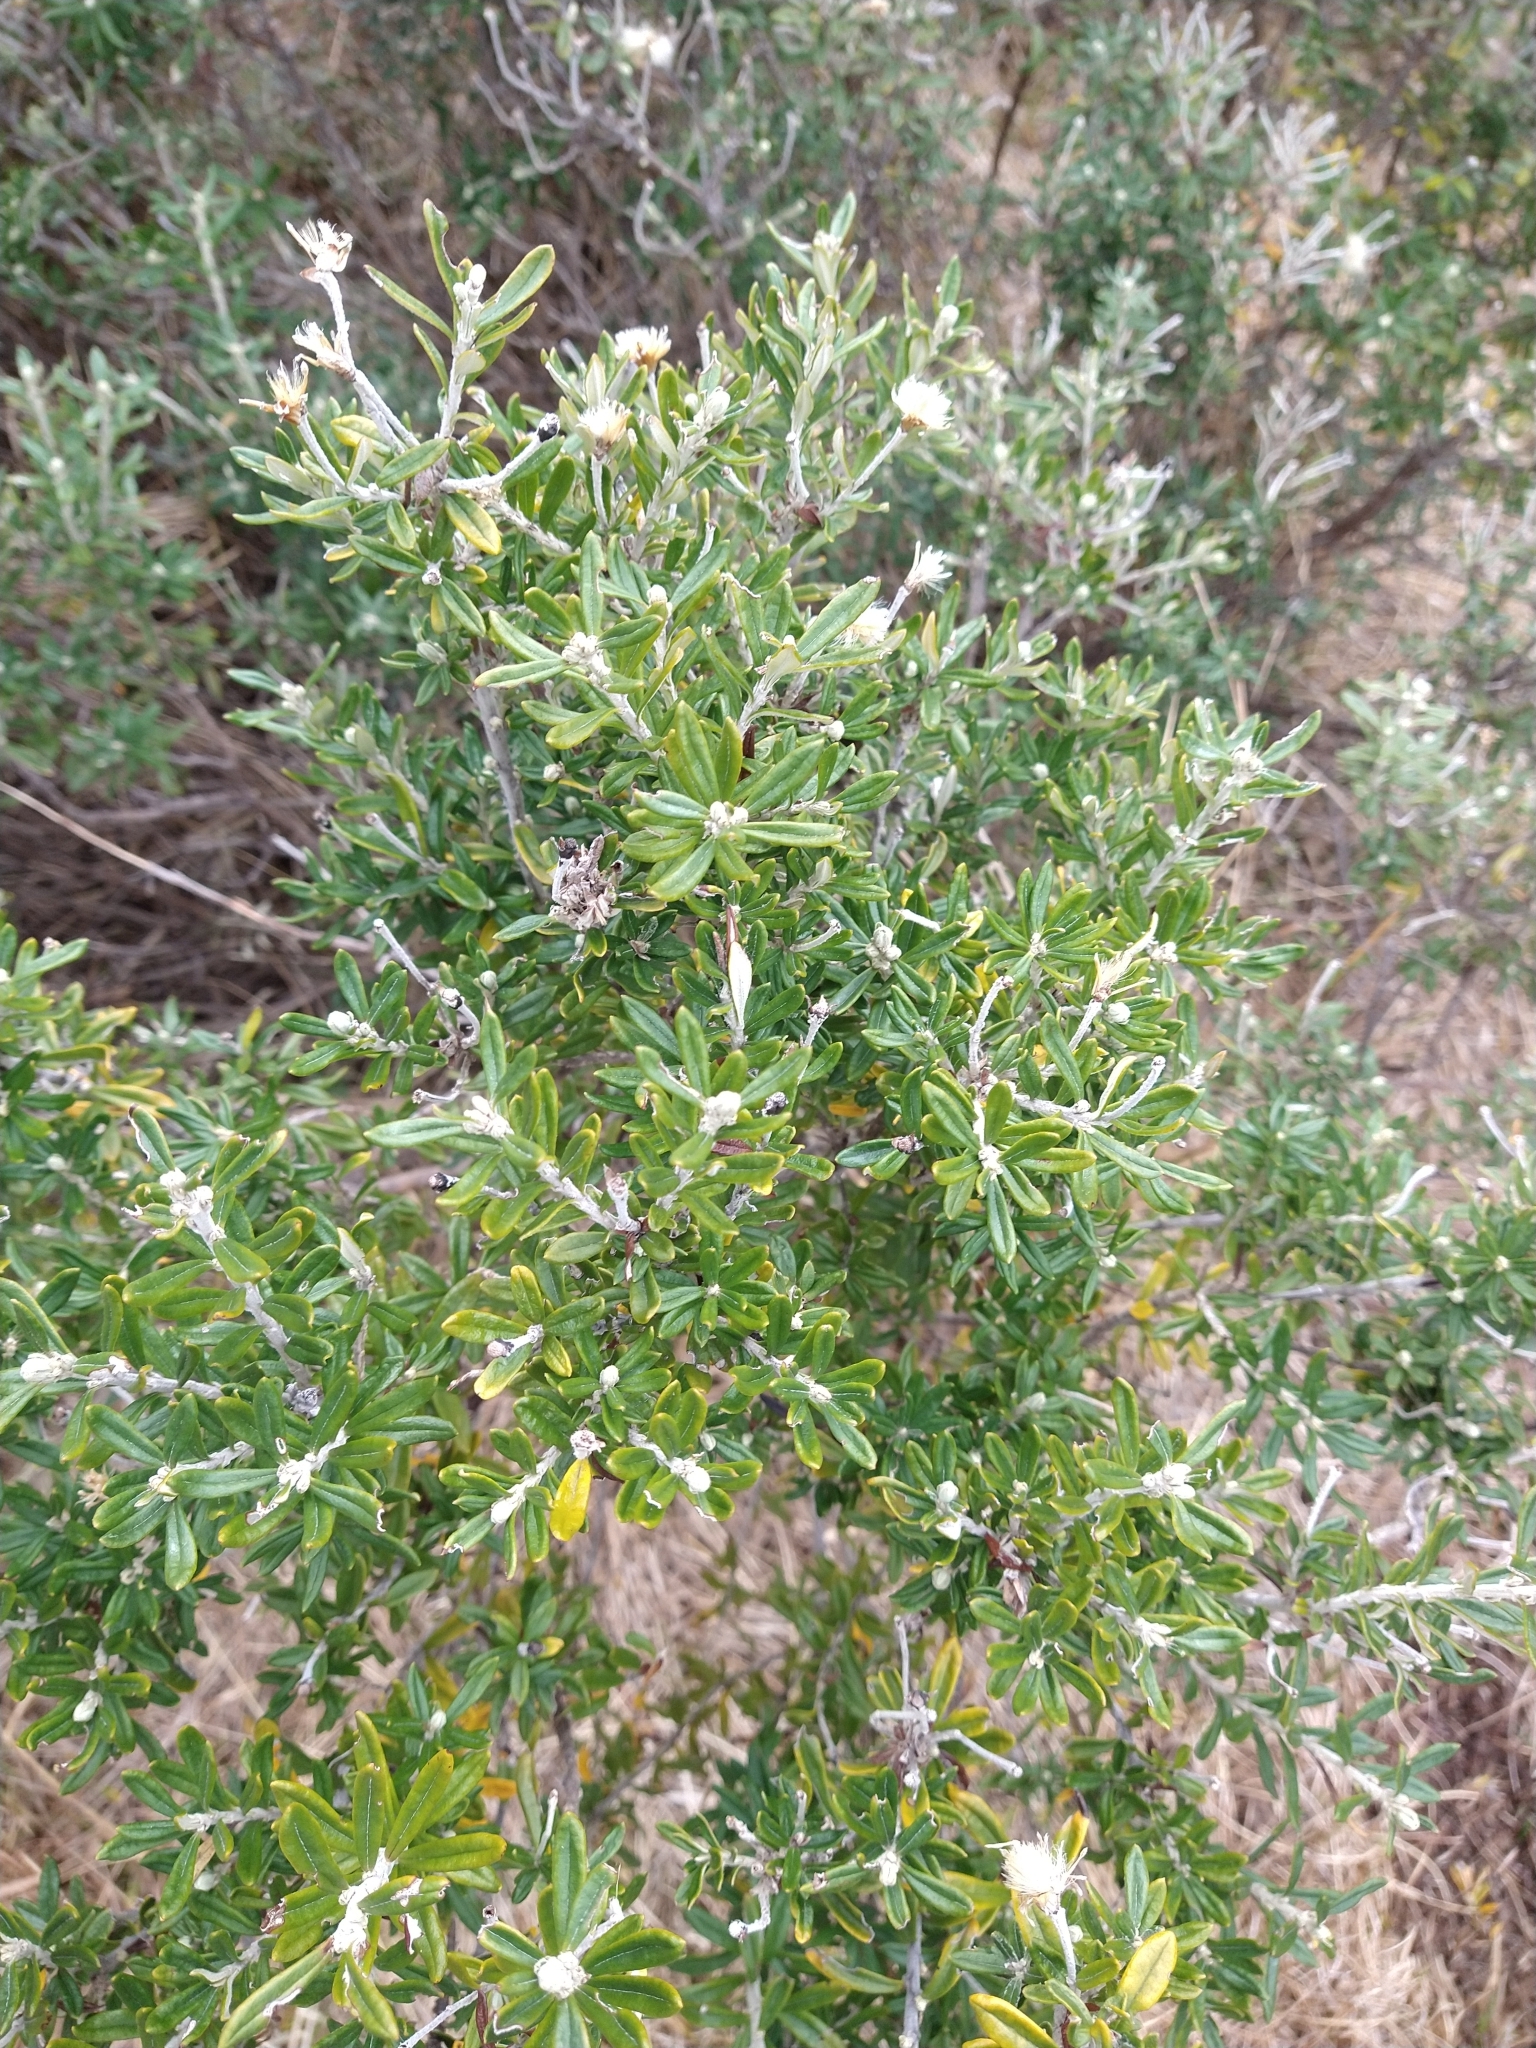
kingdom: Plantae
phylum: Tracheophyta
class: Magnoliopsida
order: Asterales
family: Asteraceae
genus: Chiliotrichum
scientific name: Chiliotrichum diffusum
